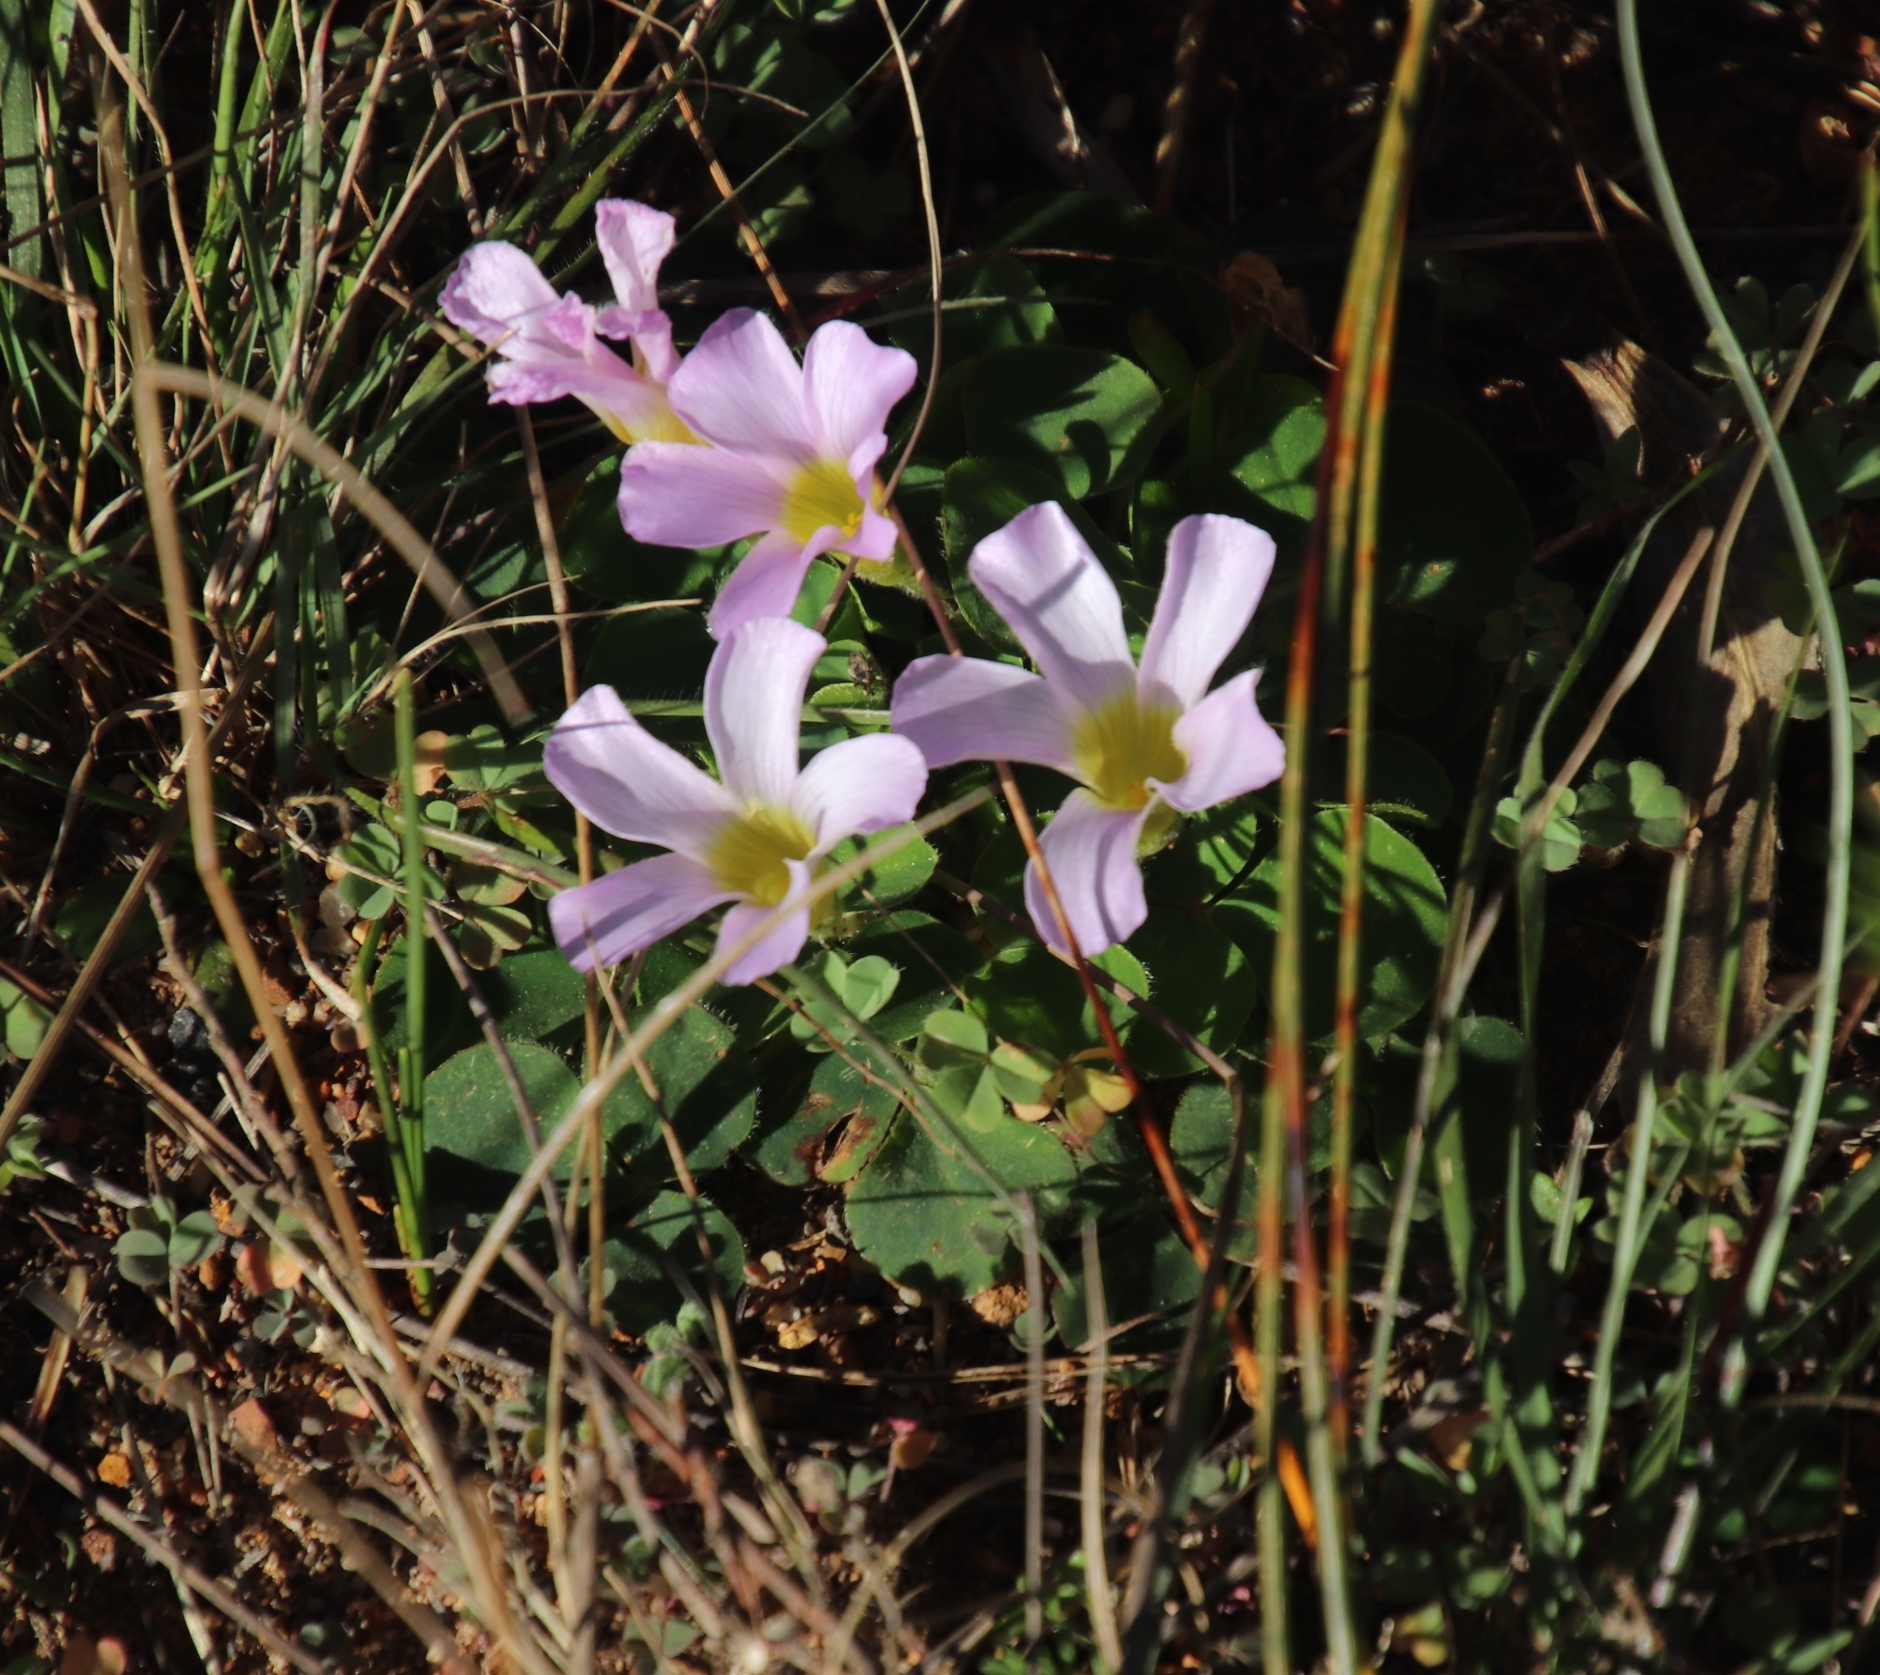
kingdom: Plantae
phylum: Tracheophyta
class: Magnoliopsida
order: Oxalidales
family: Oxalidaceae
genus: Oxalis
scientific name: Oxalis purpurea
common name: Purple woodsorrel
